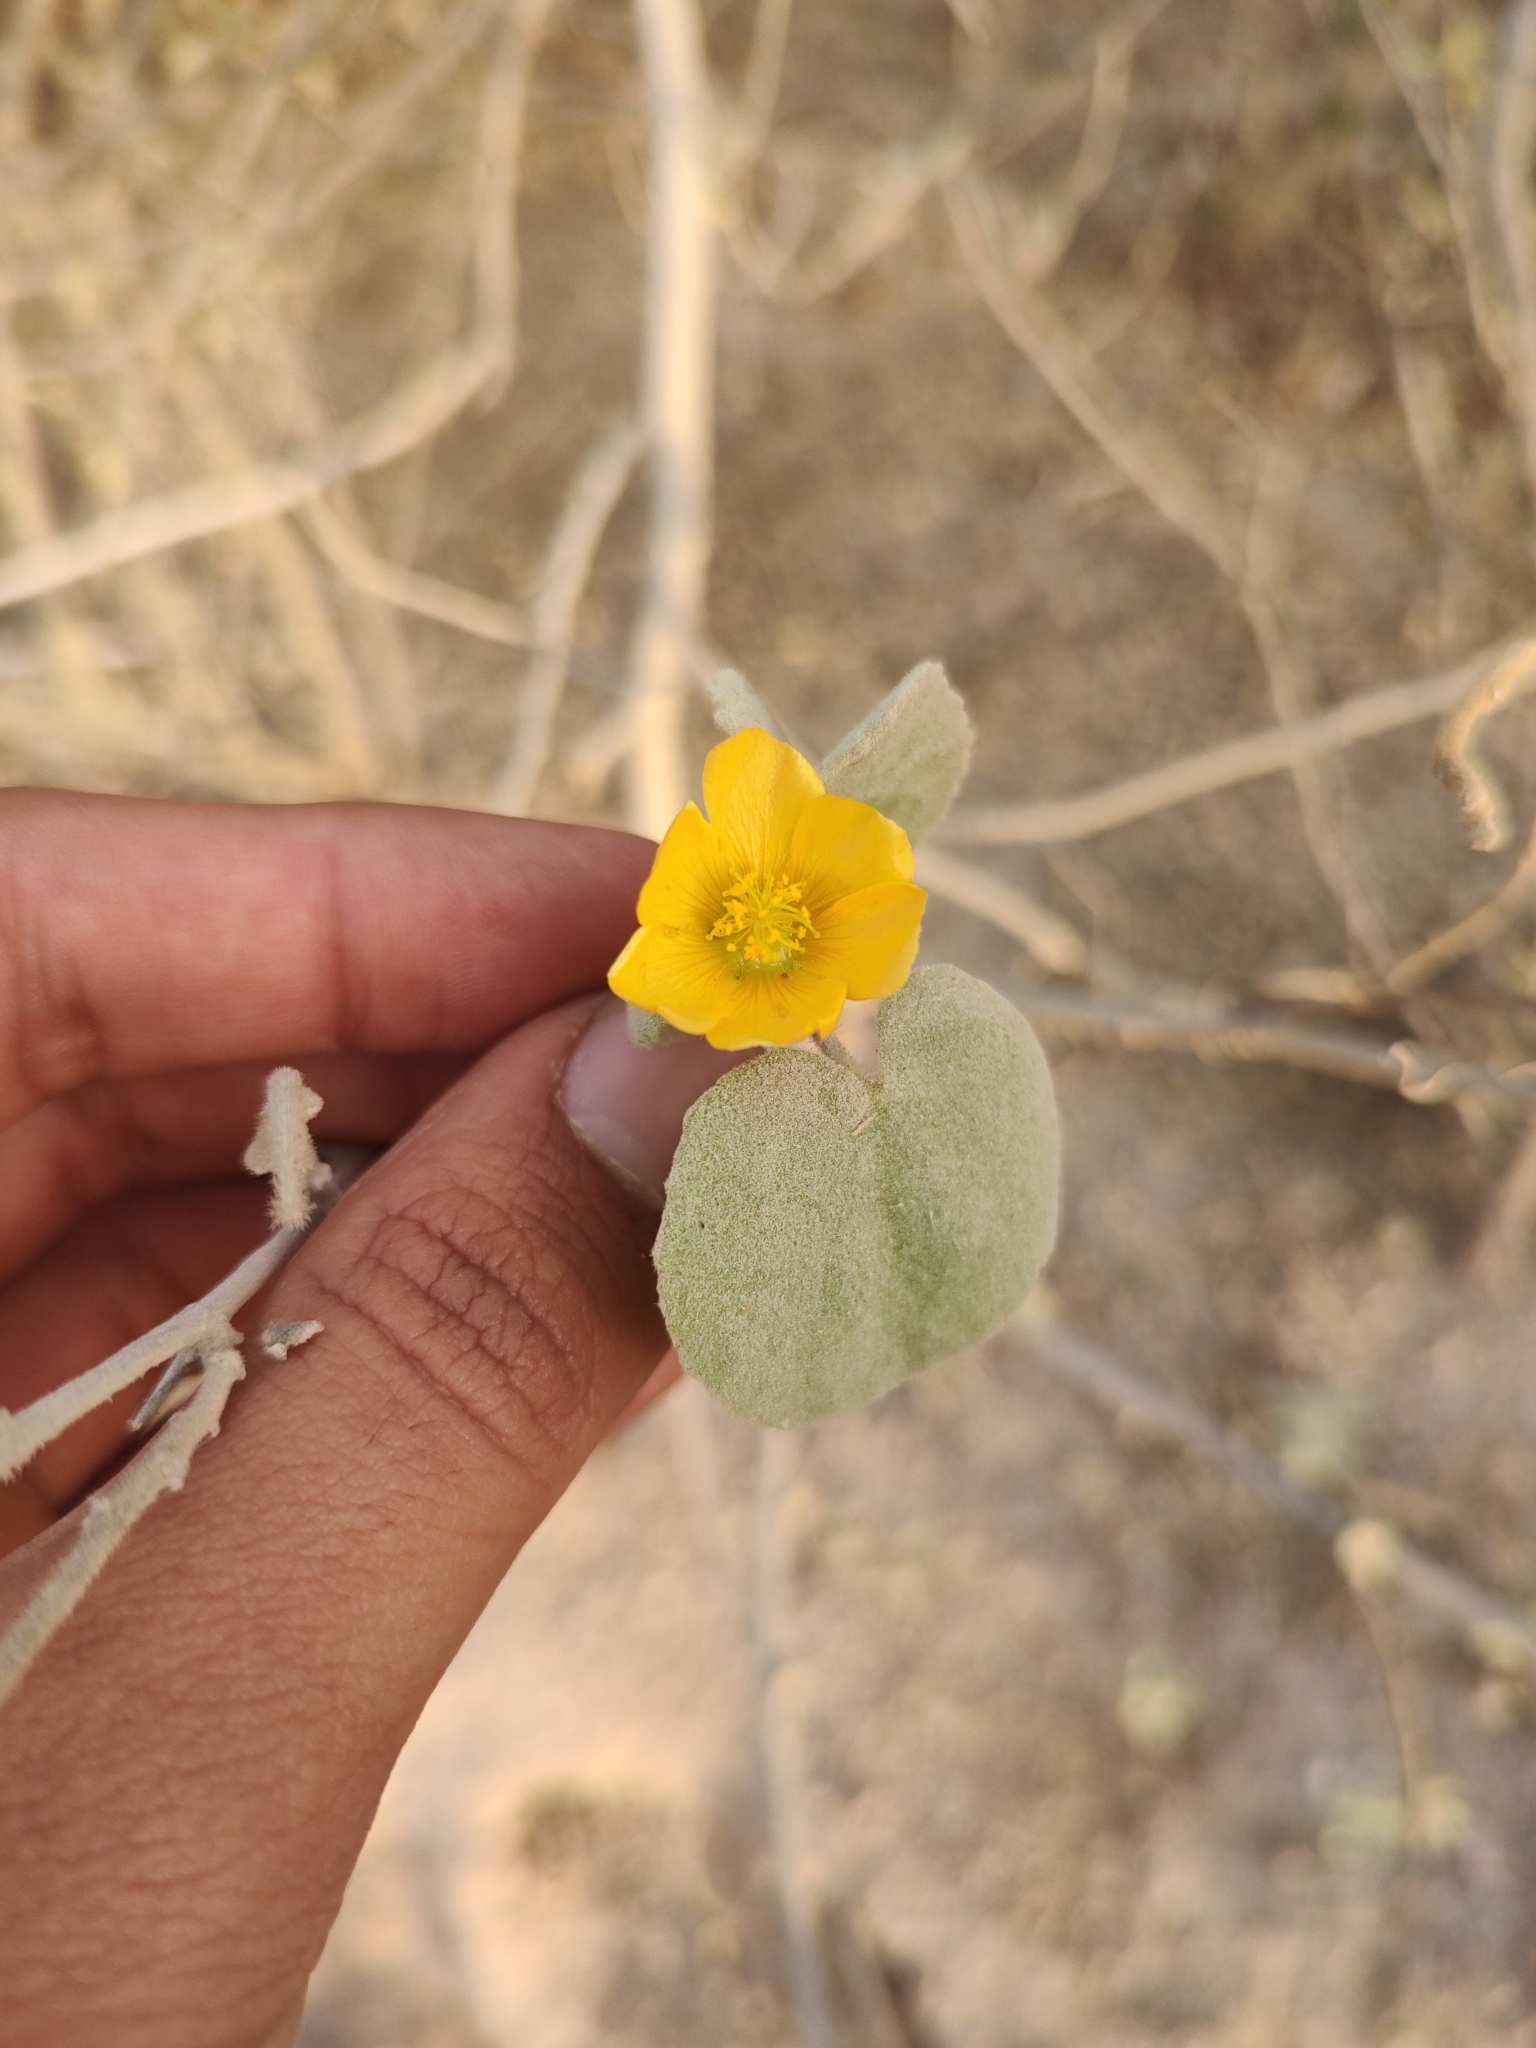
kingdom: Plantae
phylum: Tracheophyta
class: Magnoliopsida
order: Malvales
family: Malvaceae
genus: Abutilon
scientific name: Abutilon californicum
